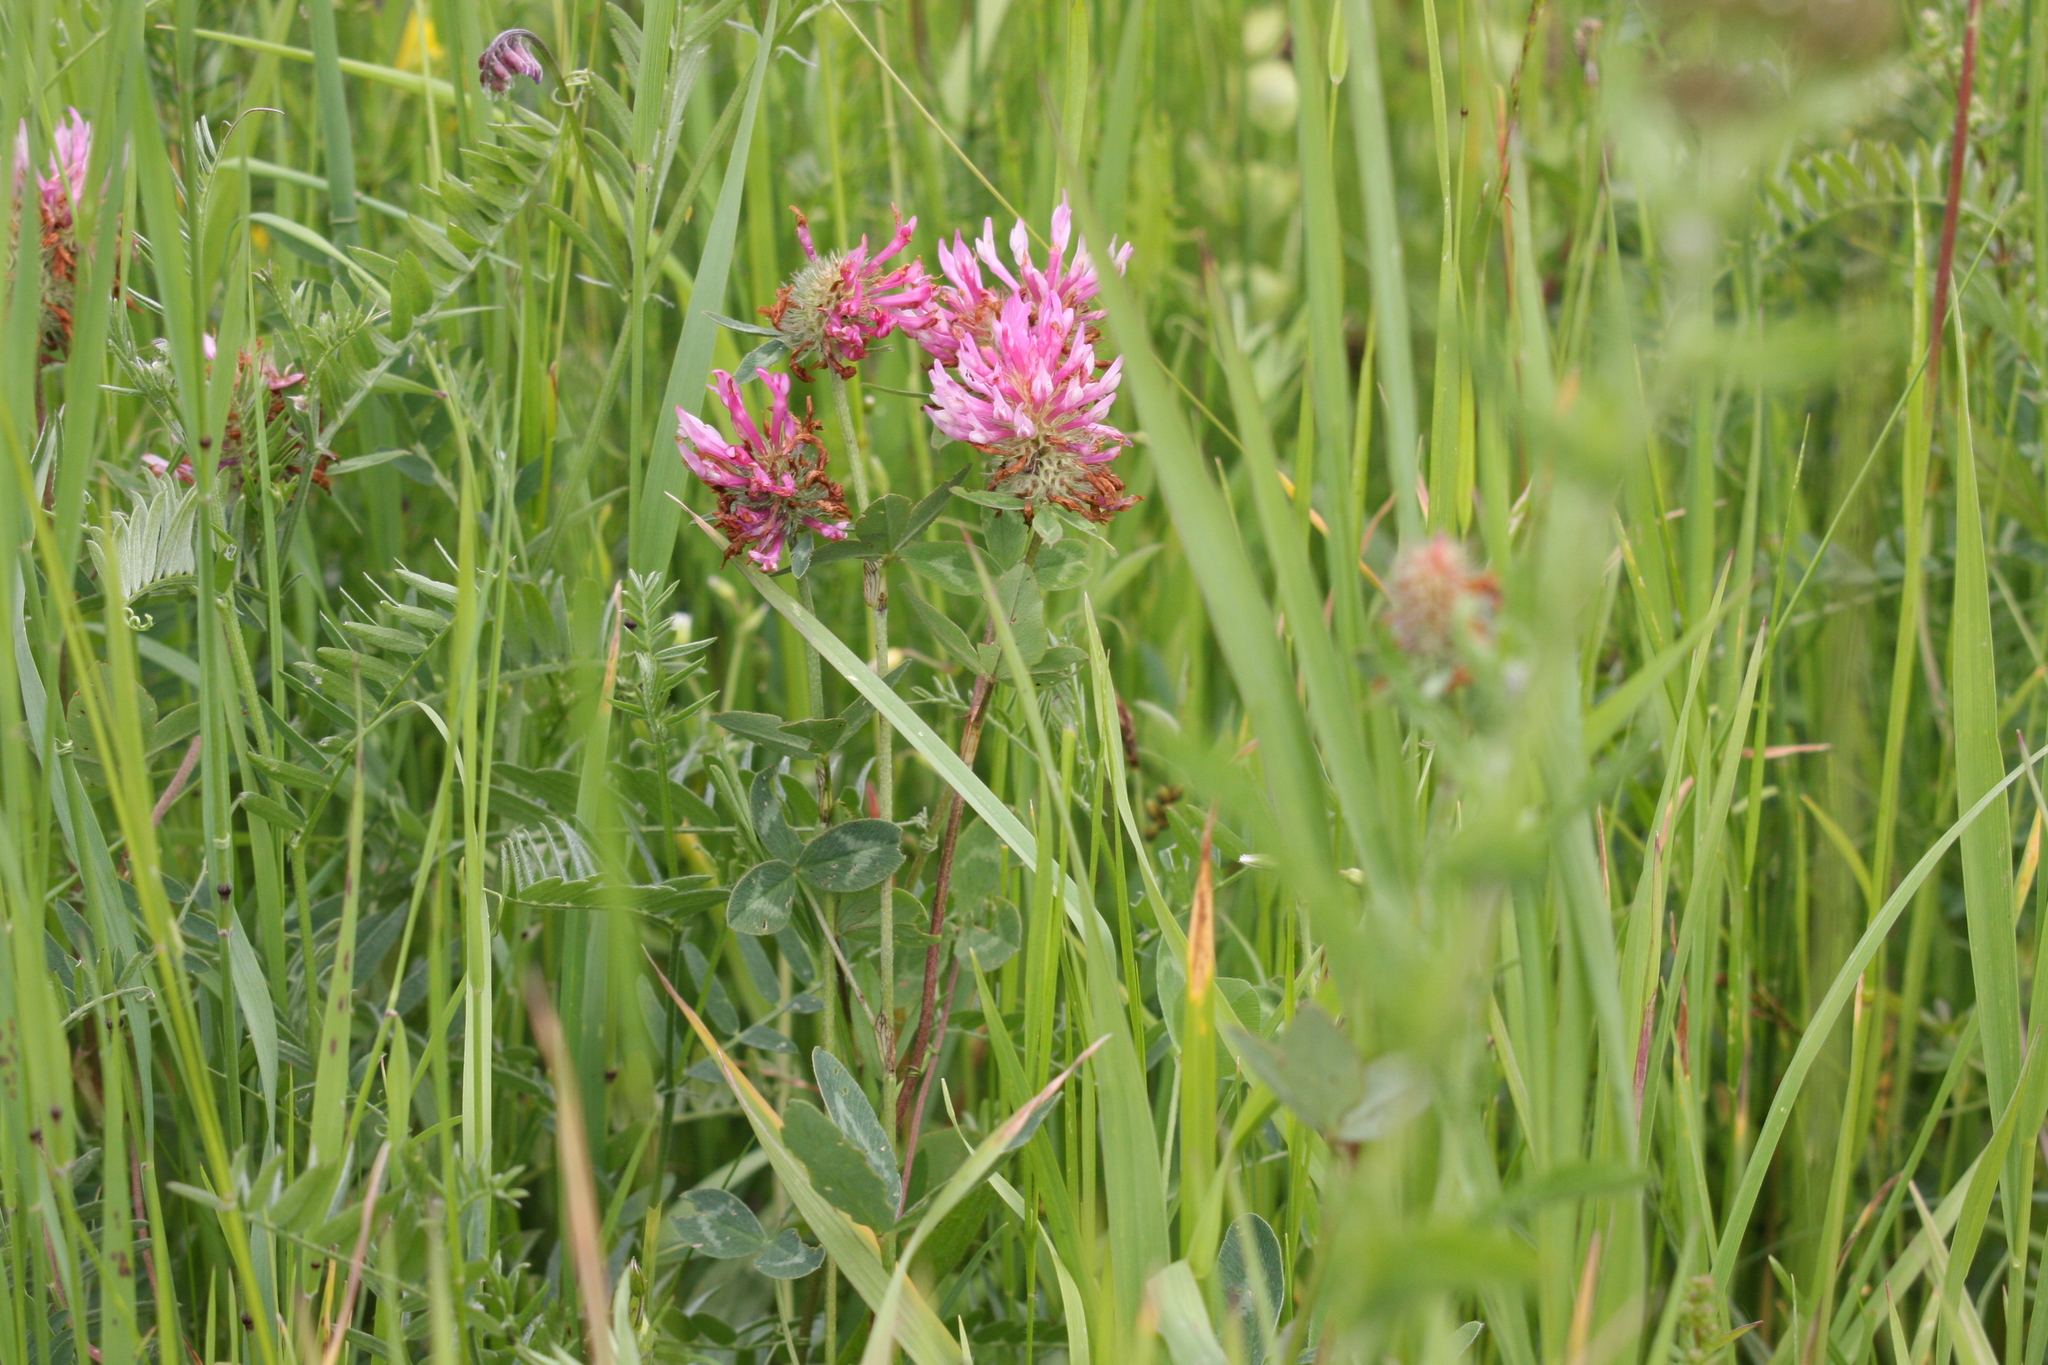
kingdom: Plantae
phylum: Tracheophyta
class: Magnoliopsida
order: Fabales
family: Fabaceae
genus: Trifolium
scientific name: Trifolium pratense
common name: Red clover
